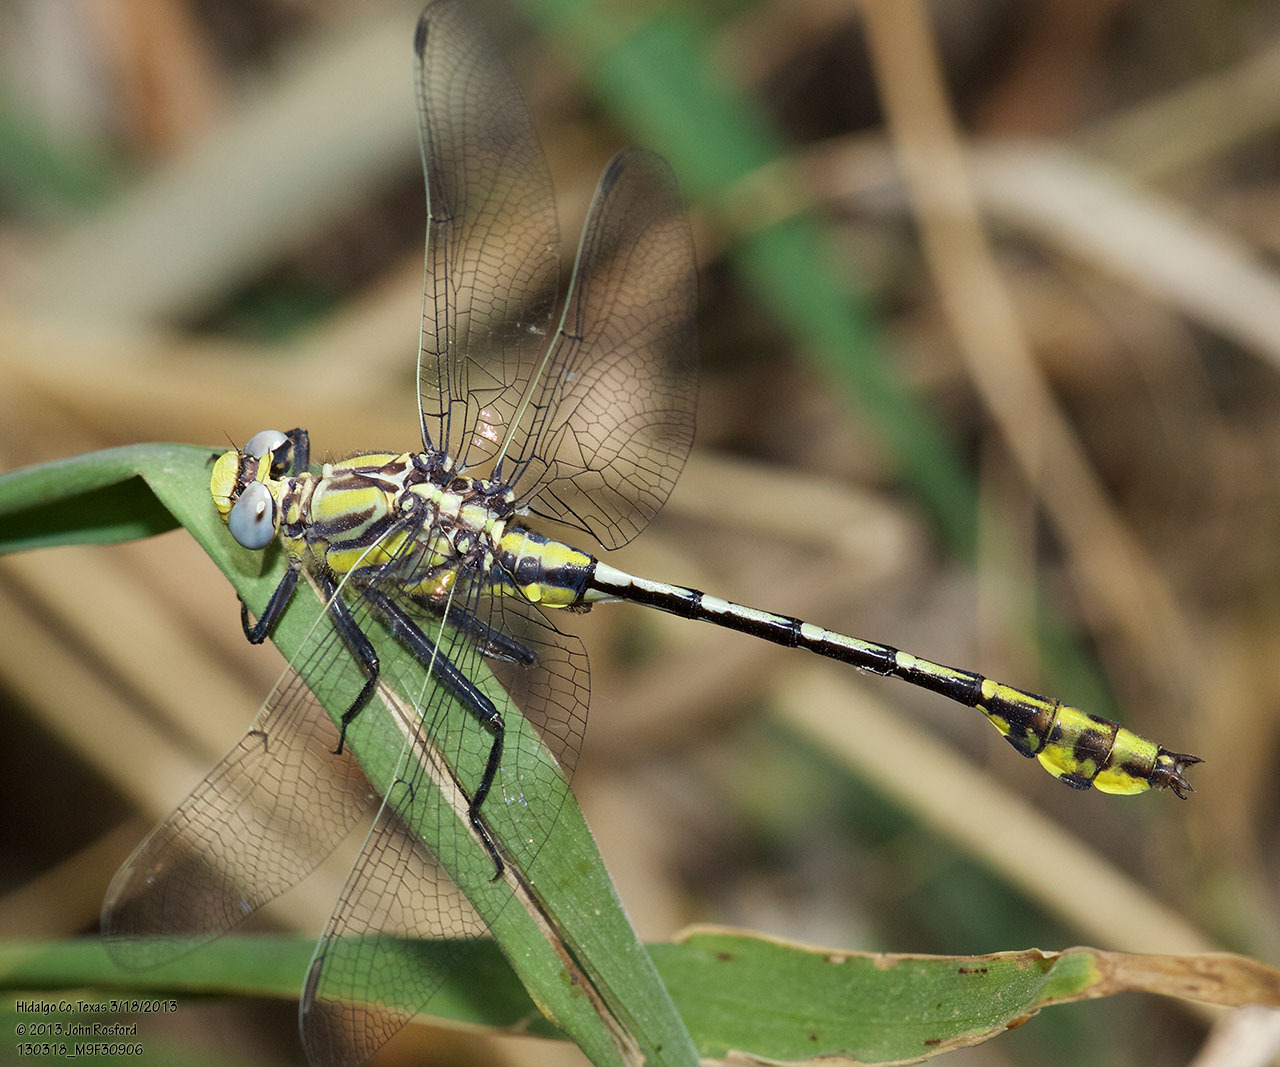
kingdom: Animalia
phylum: Arthropoda
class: Insecta
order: Odonata
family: Gomphidae
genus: Gomphurus
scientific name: Gomphurus gonzalezi
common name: Tamaulipan clubtail
